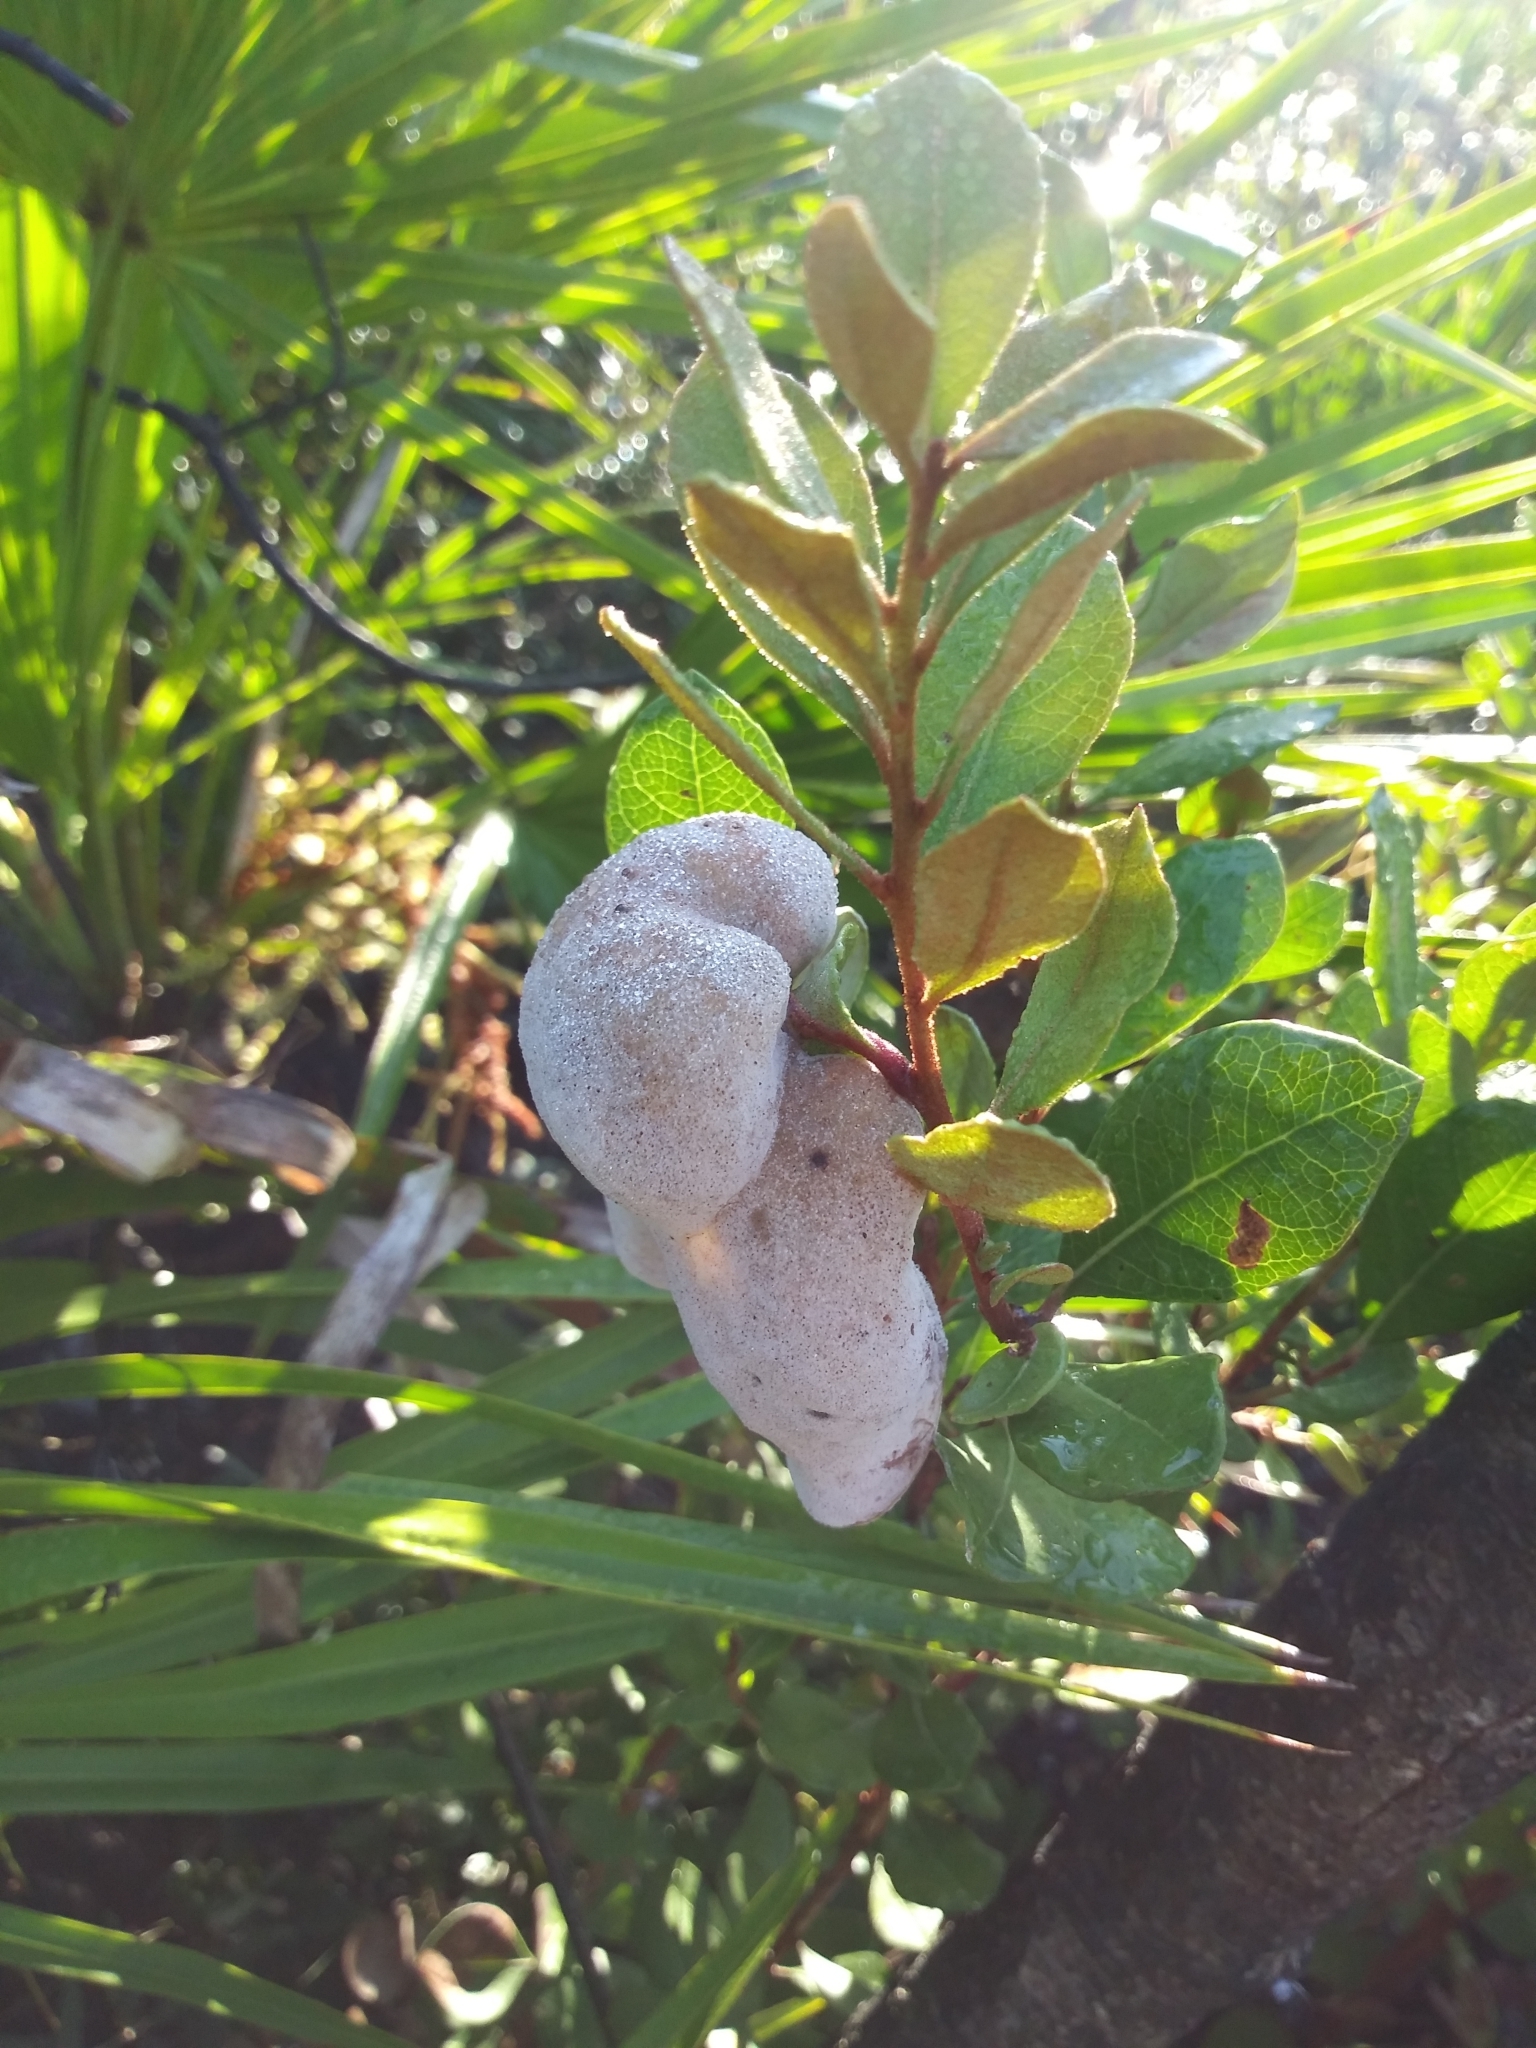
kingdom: Plantae
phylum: Tracheophyta
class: Magnoliopsida
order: Ericales
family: Ericaceae
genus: Lyonia
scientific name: Lyonia fruticosa
